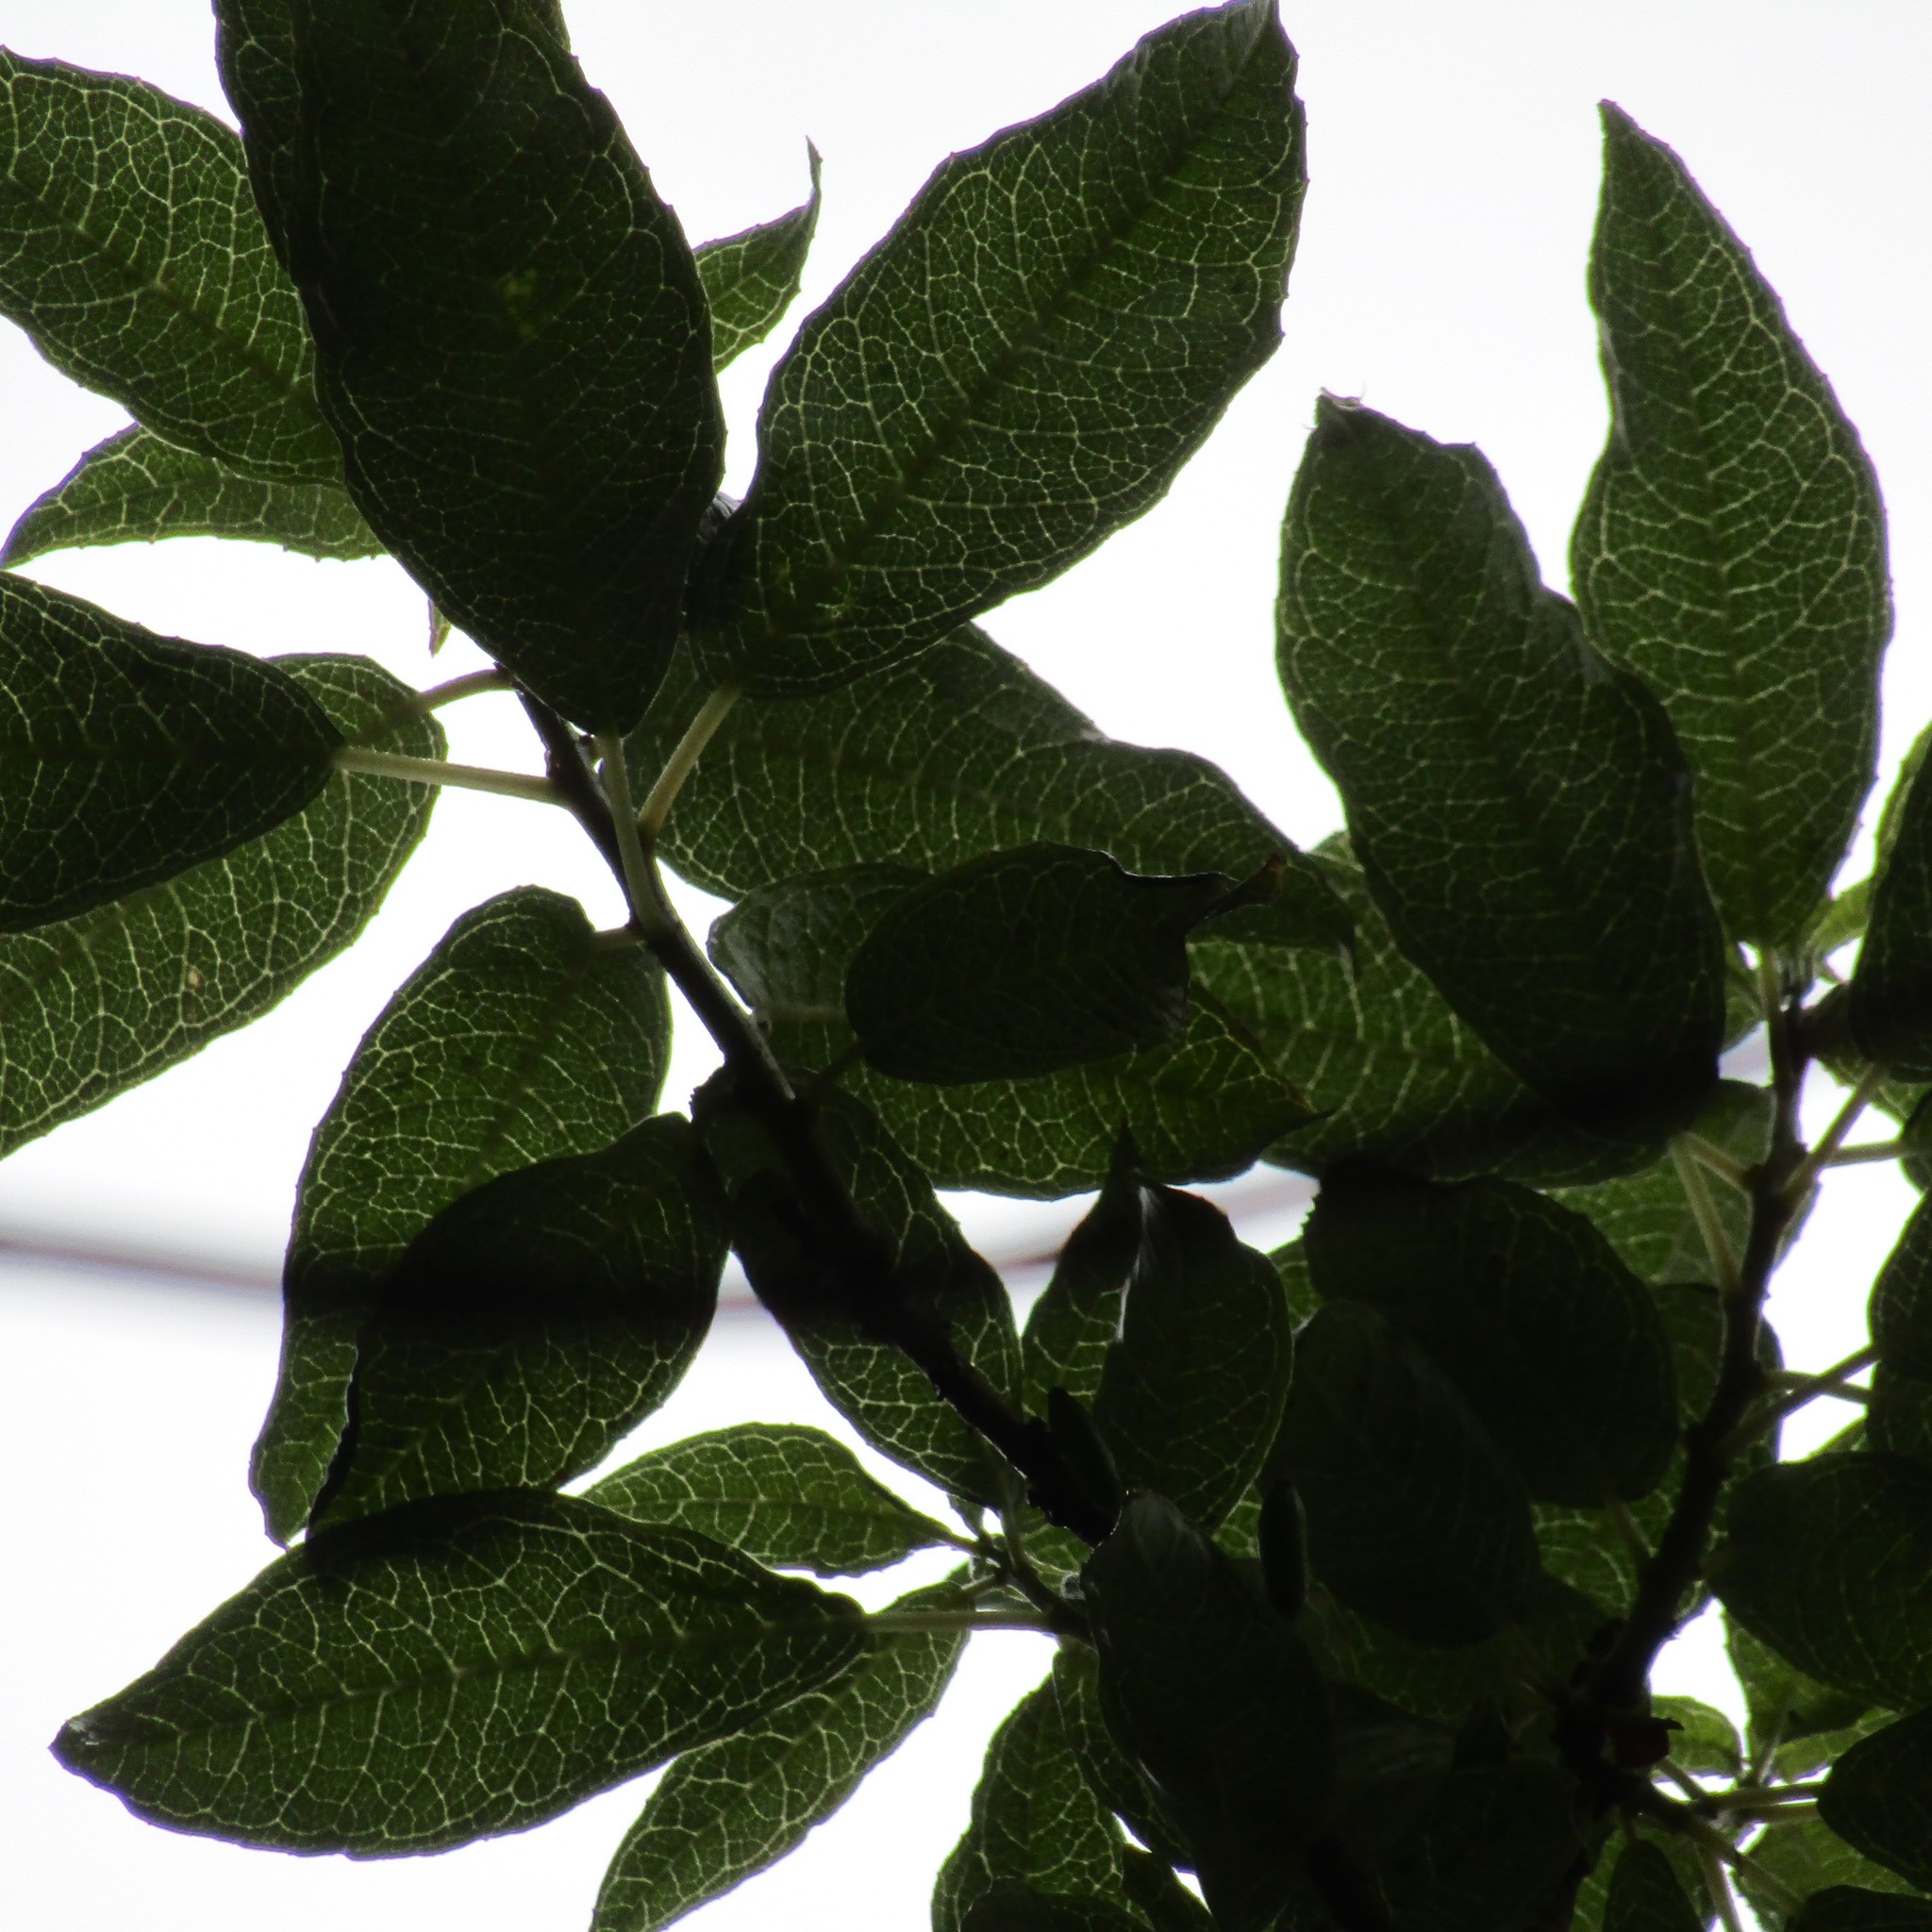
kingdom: Plantae
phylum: Tracheophyta
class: Magnoliopsida
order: Myrtales
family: Onagraceae
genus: Fuchsia
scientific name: Fuchsia excorticata
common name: Tree fuchsia
